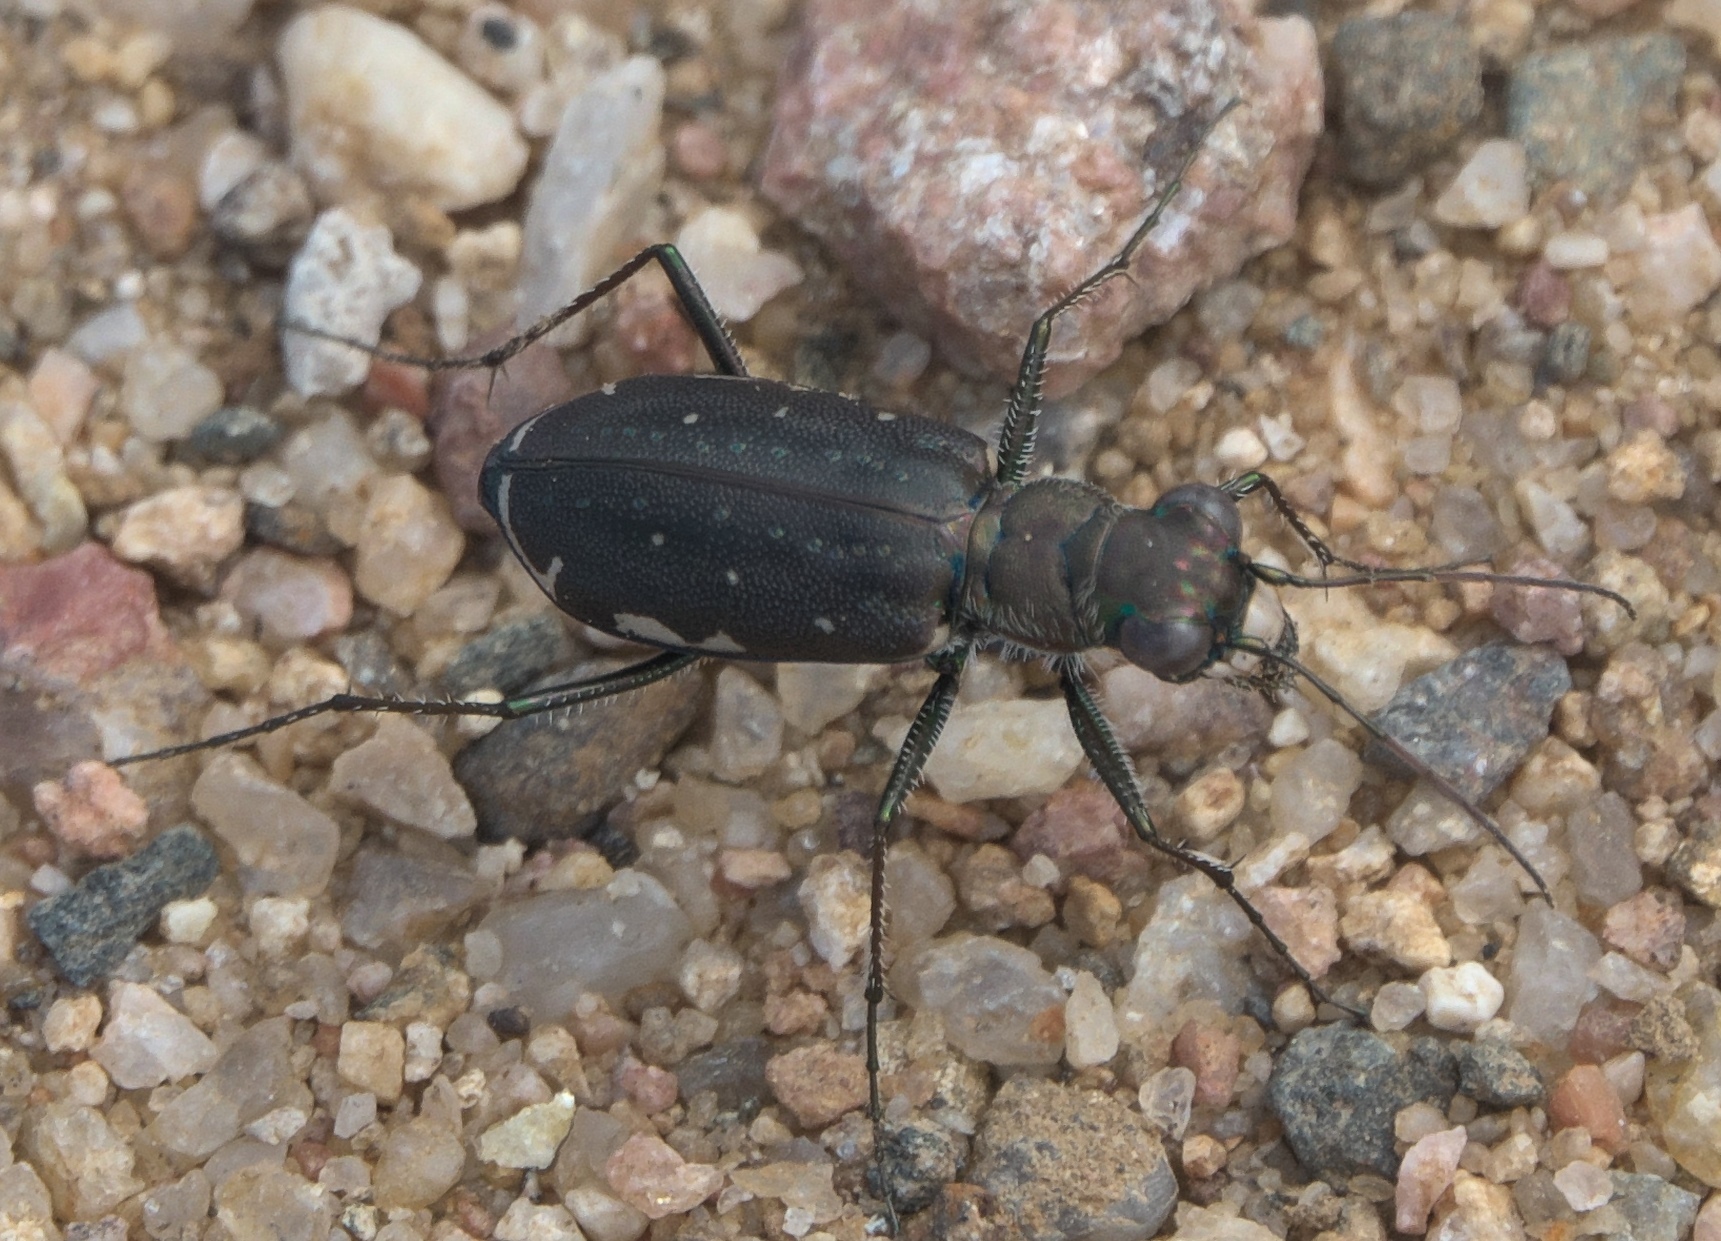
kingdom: Animalia
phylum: Arthropoda
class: Insecta
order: Coleoptera
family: Carabidae
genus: Cicindela
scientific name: Cicindela punctulata
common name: Punctured tiger beetle
